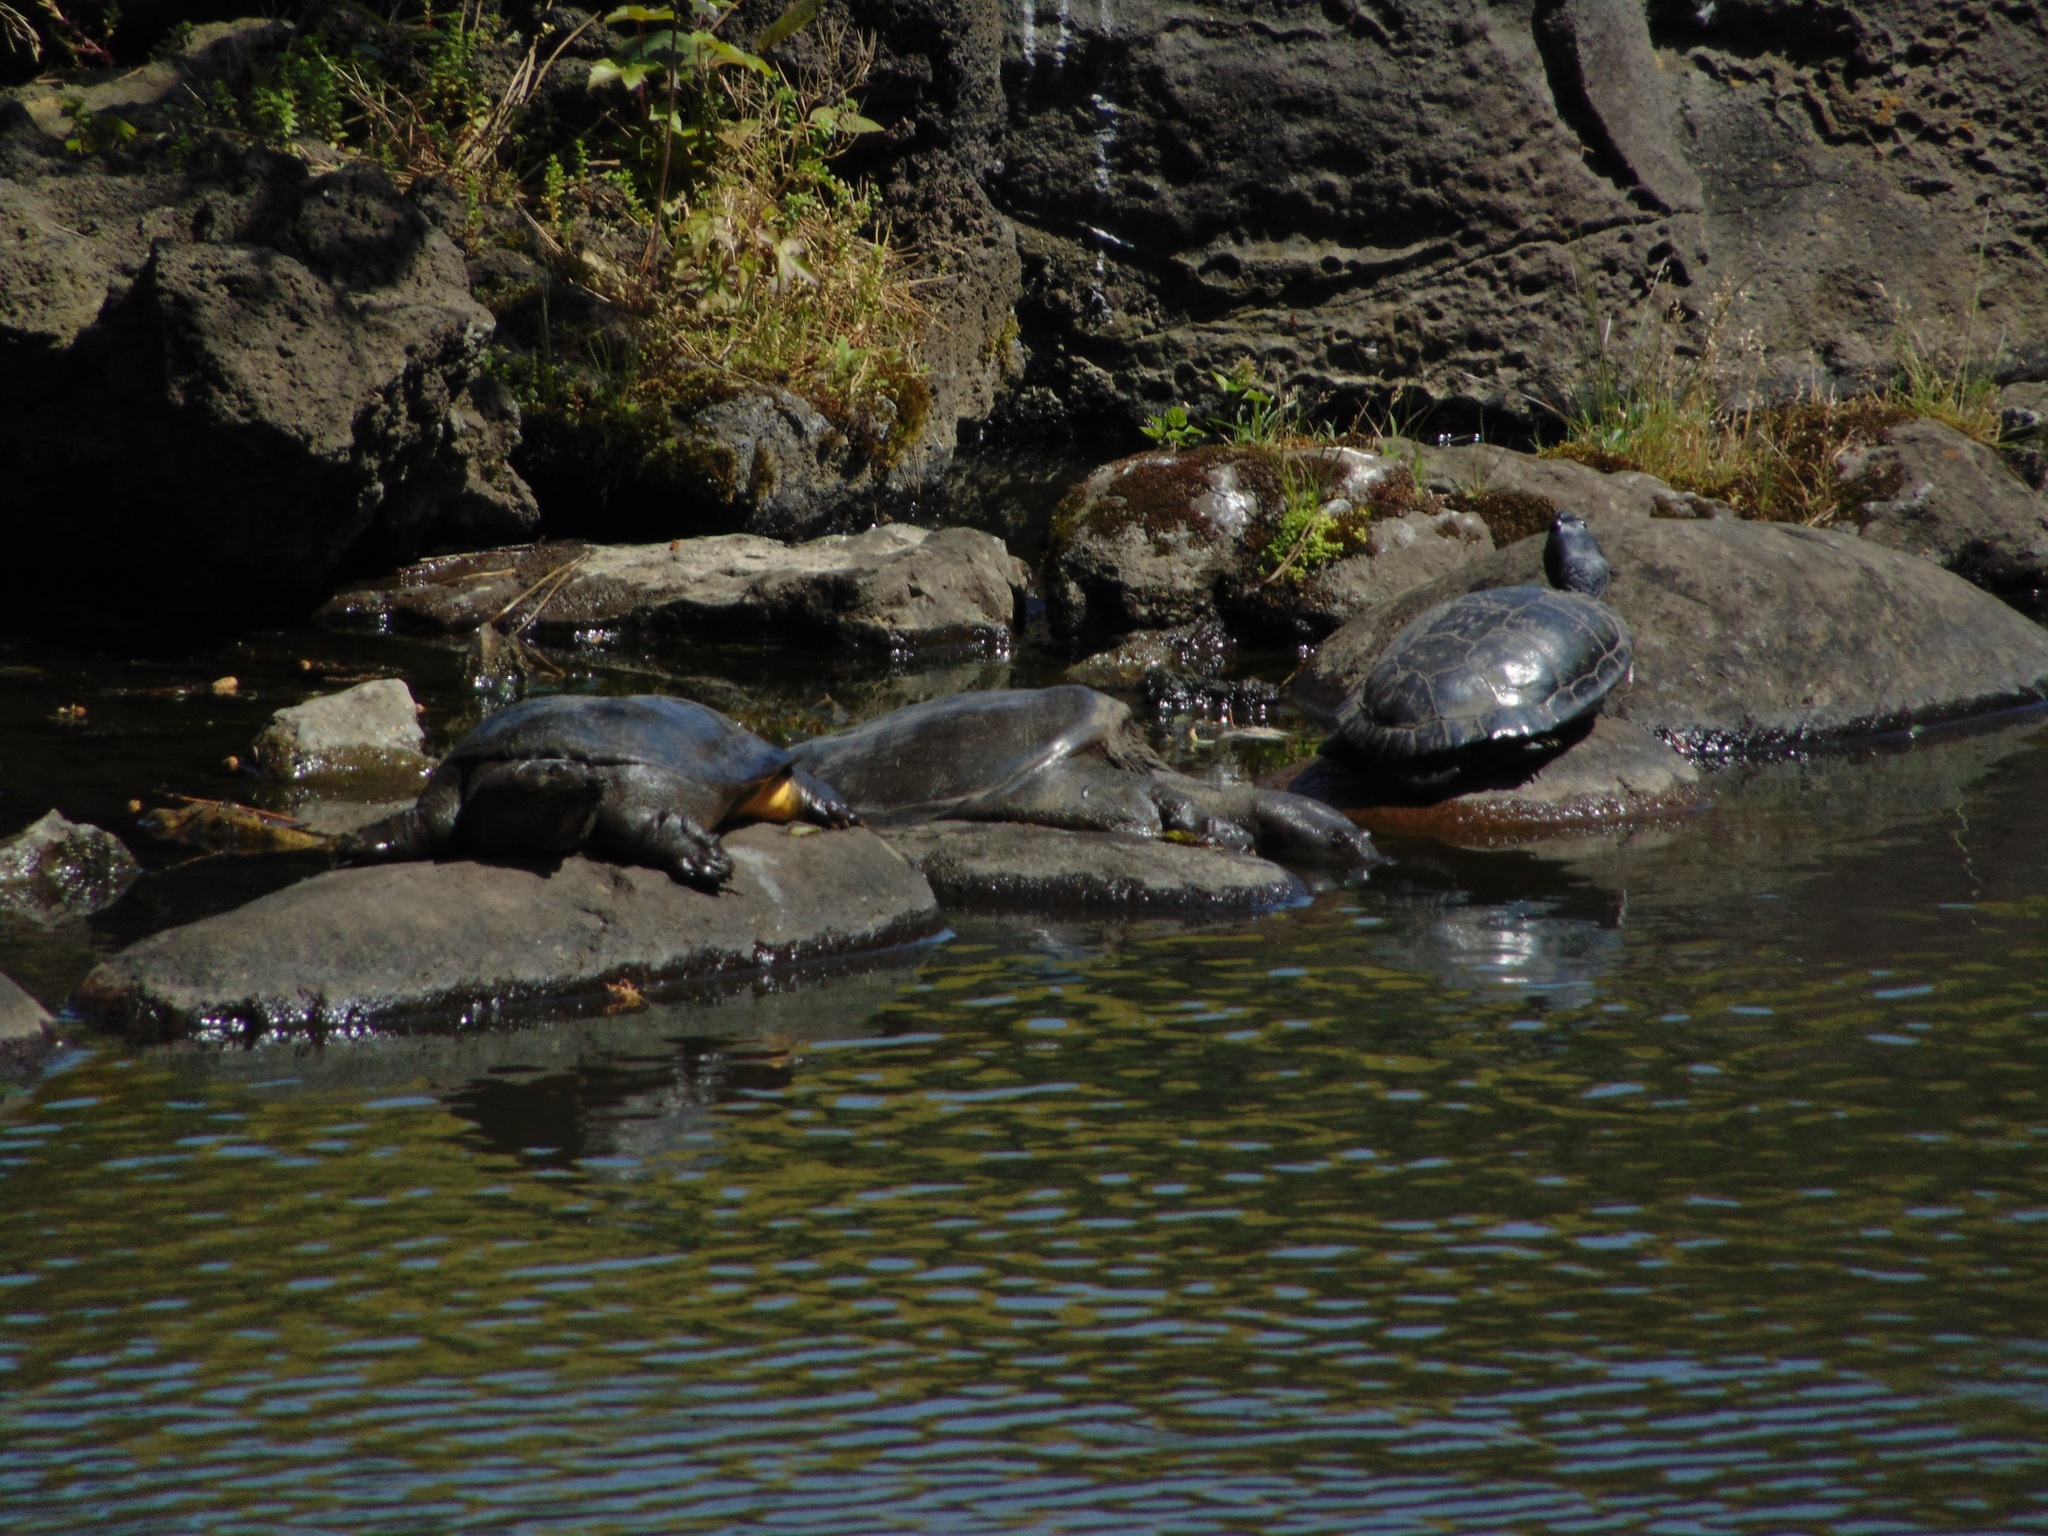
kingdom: Animalia
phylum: Chordata
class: Testudines
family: Trionychidae
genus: Pelodiscus
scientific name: Pelodiscus maackii
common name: Northern chinese softshell turtle
